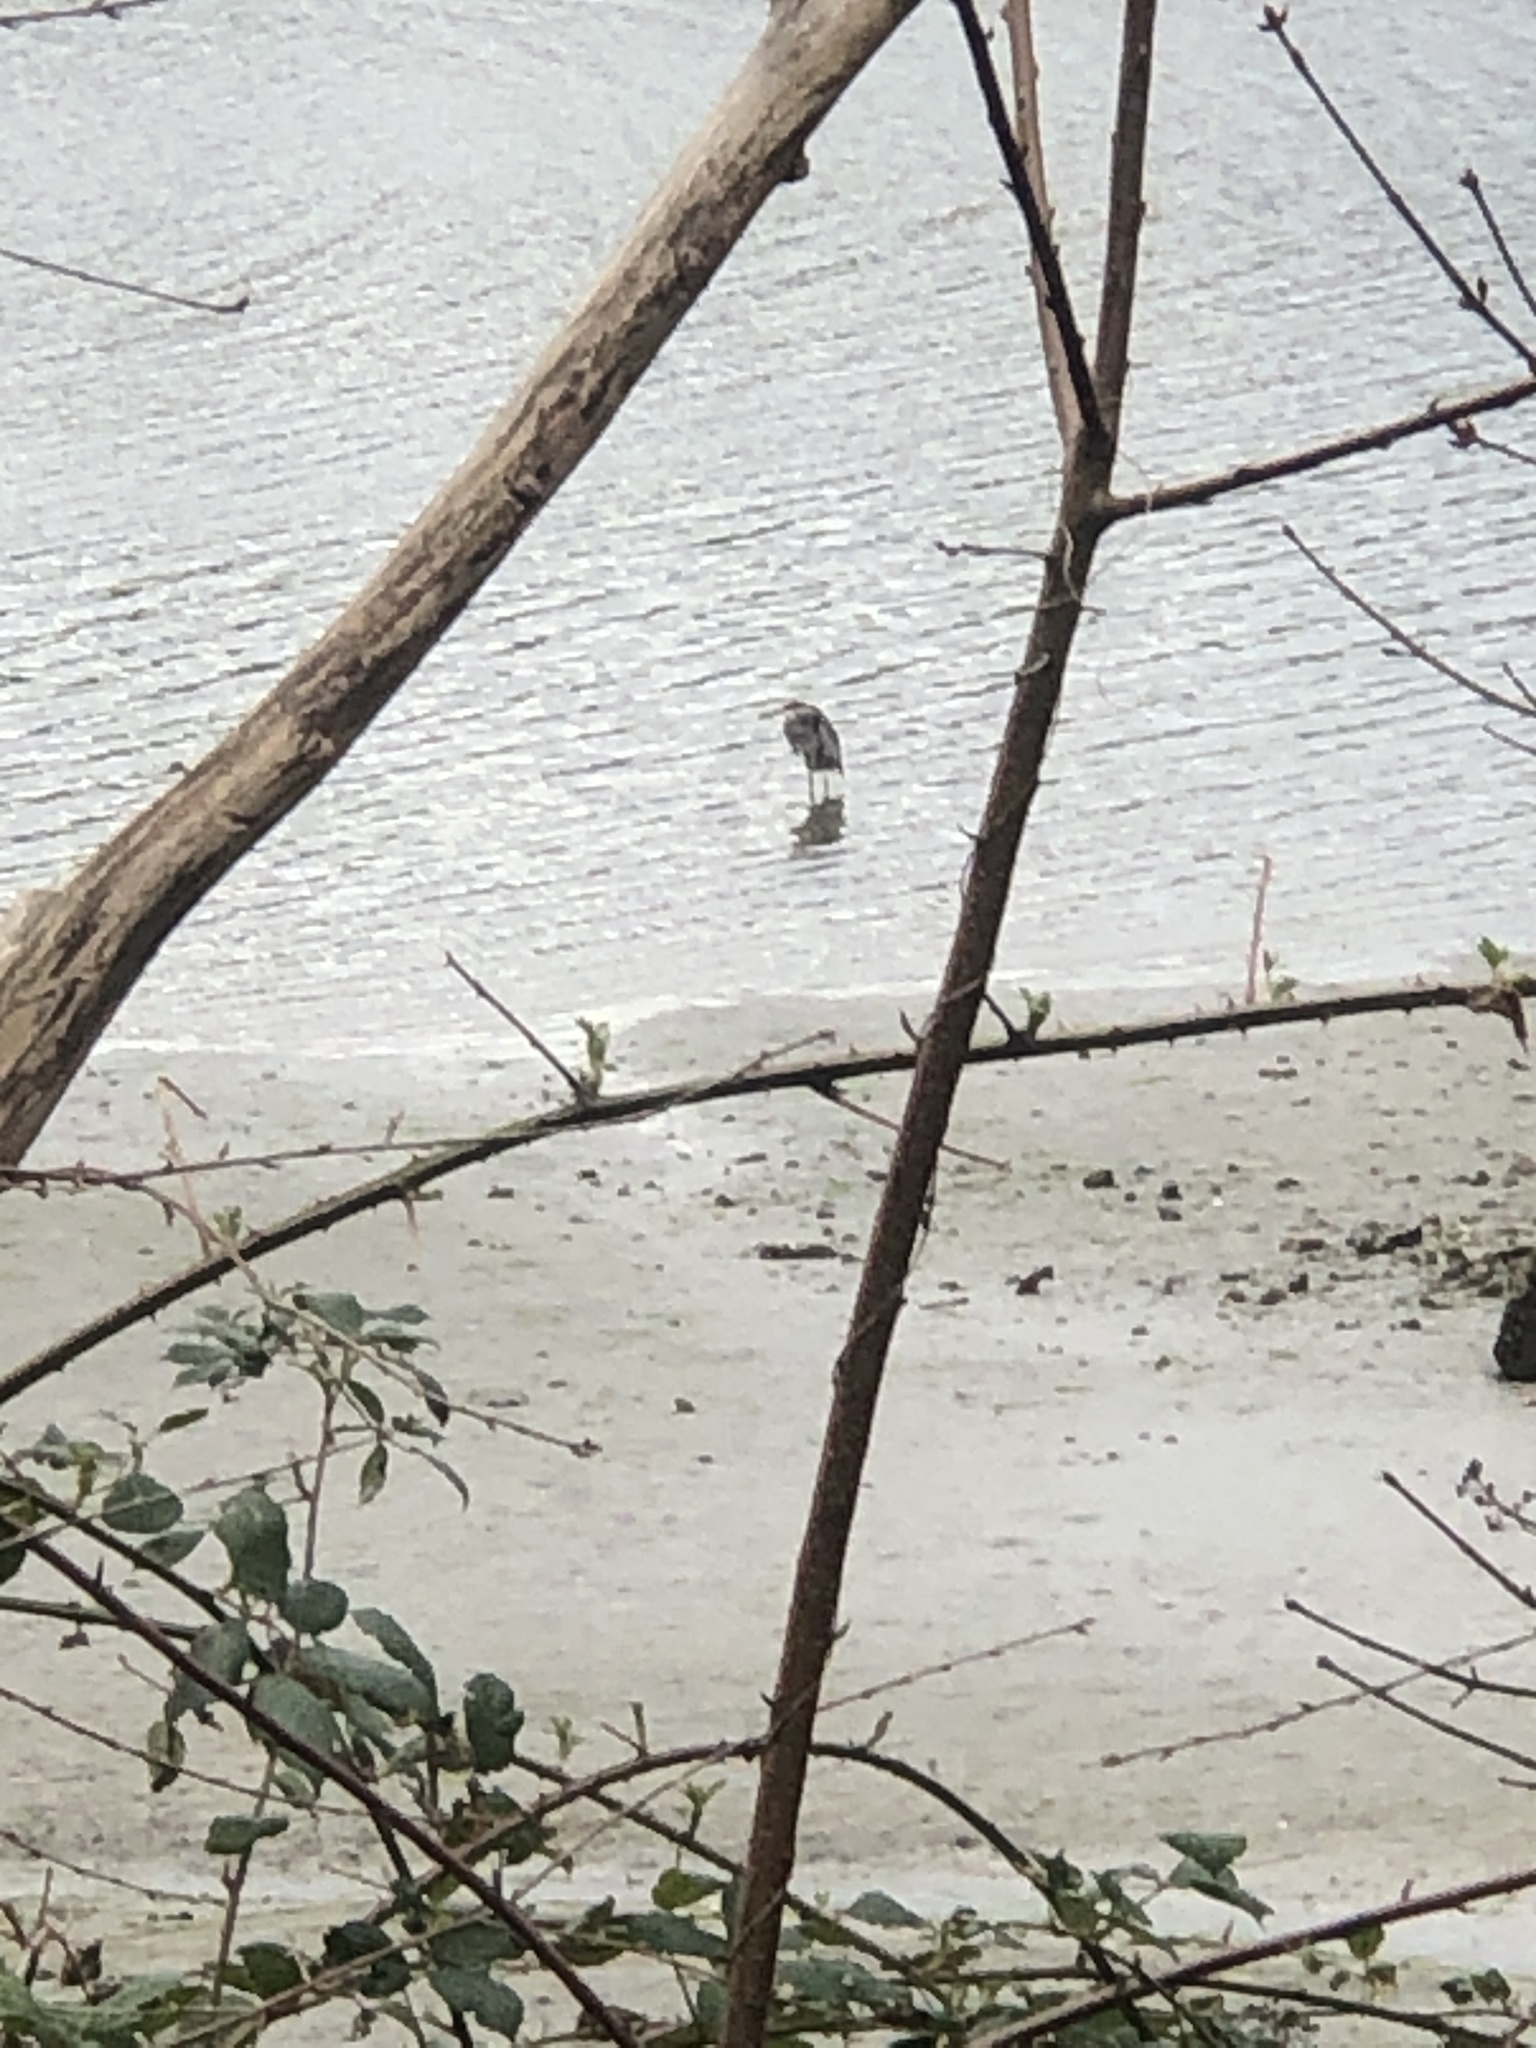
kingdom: Animalia
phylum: Chordata
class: Aves
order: Pelecaniformes
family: Ardeidae
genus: Ardea
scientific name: Ardea herodias
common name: Great blue heron
